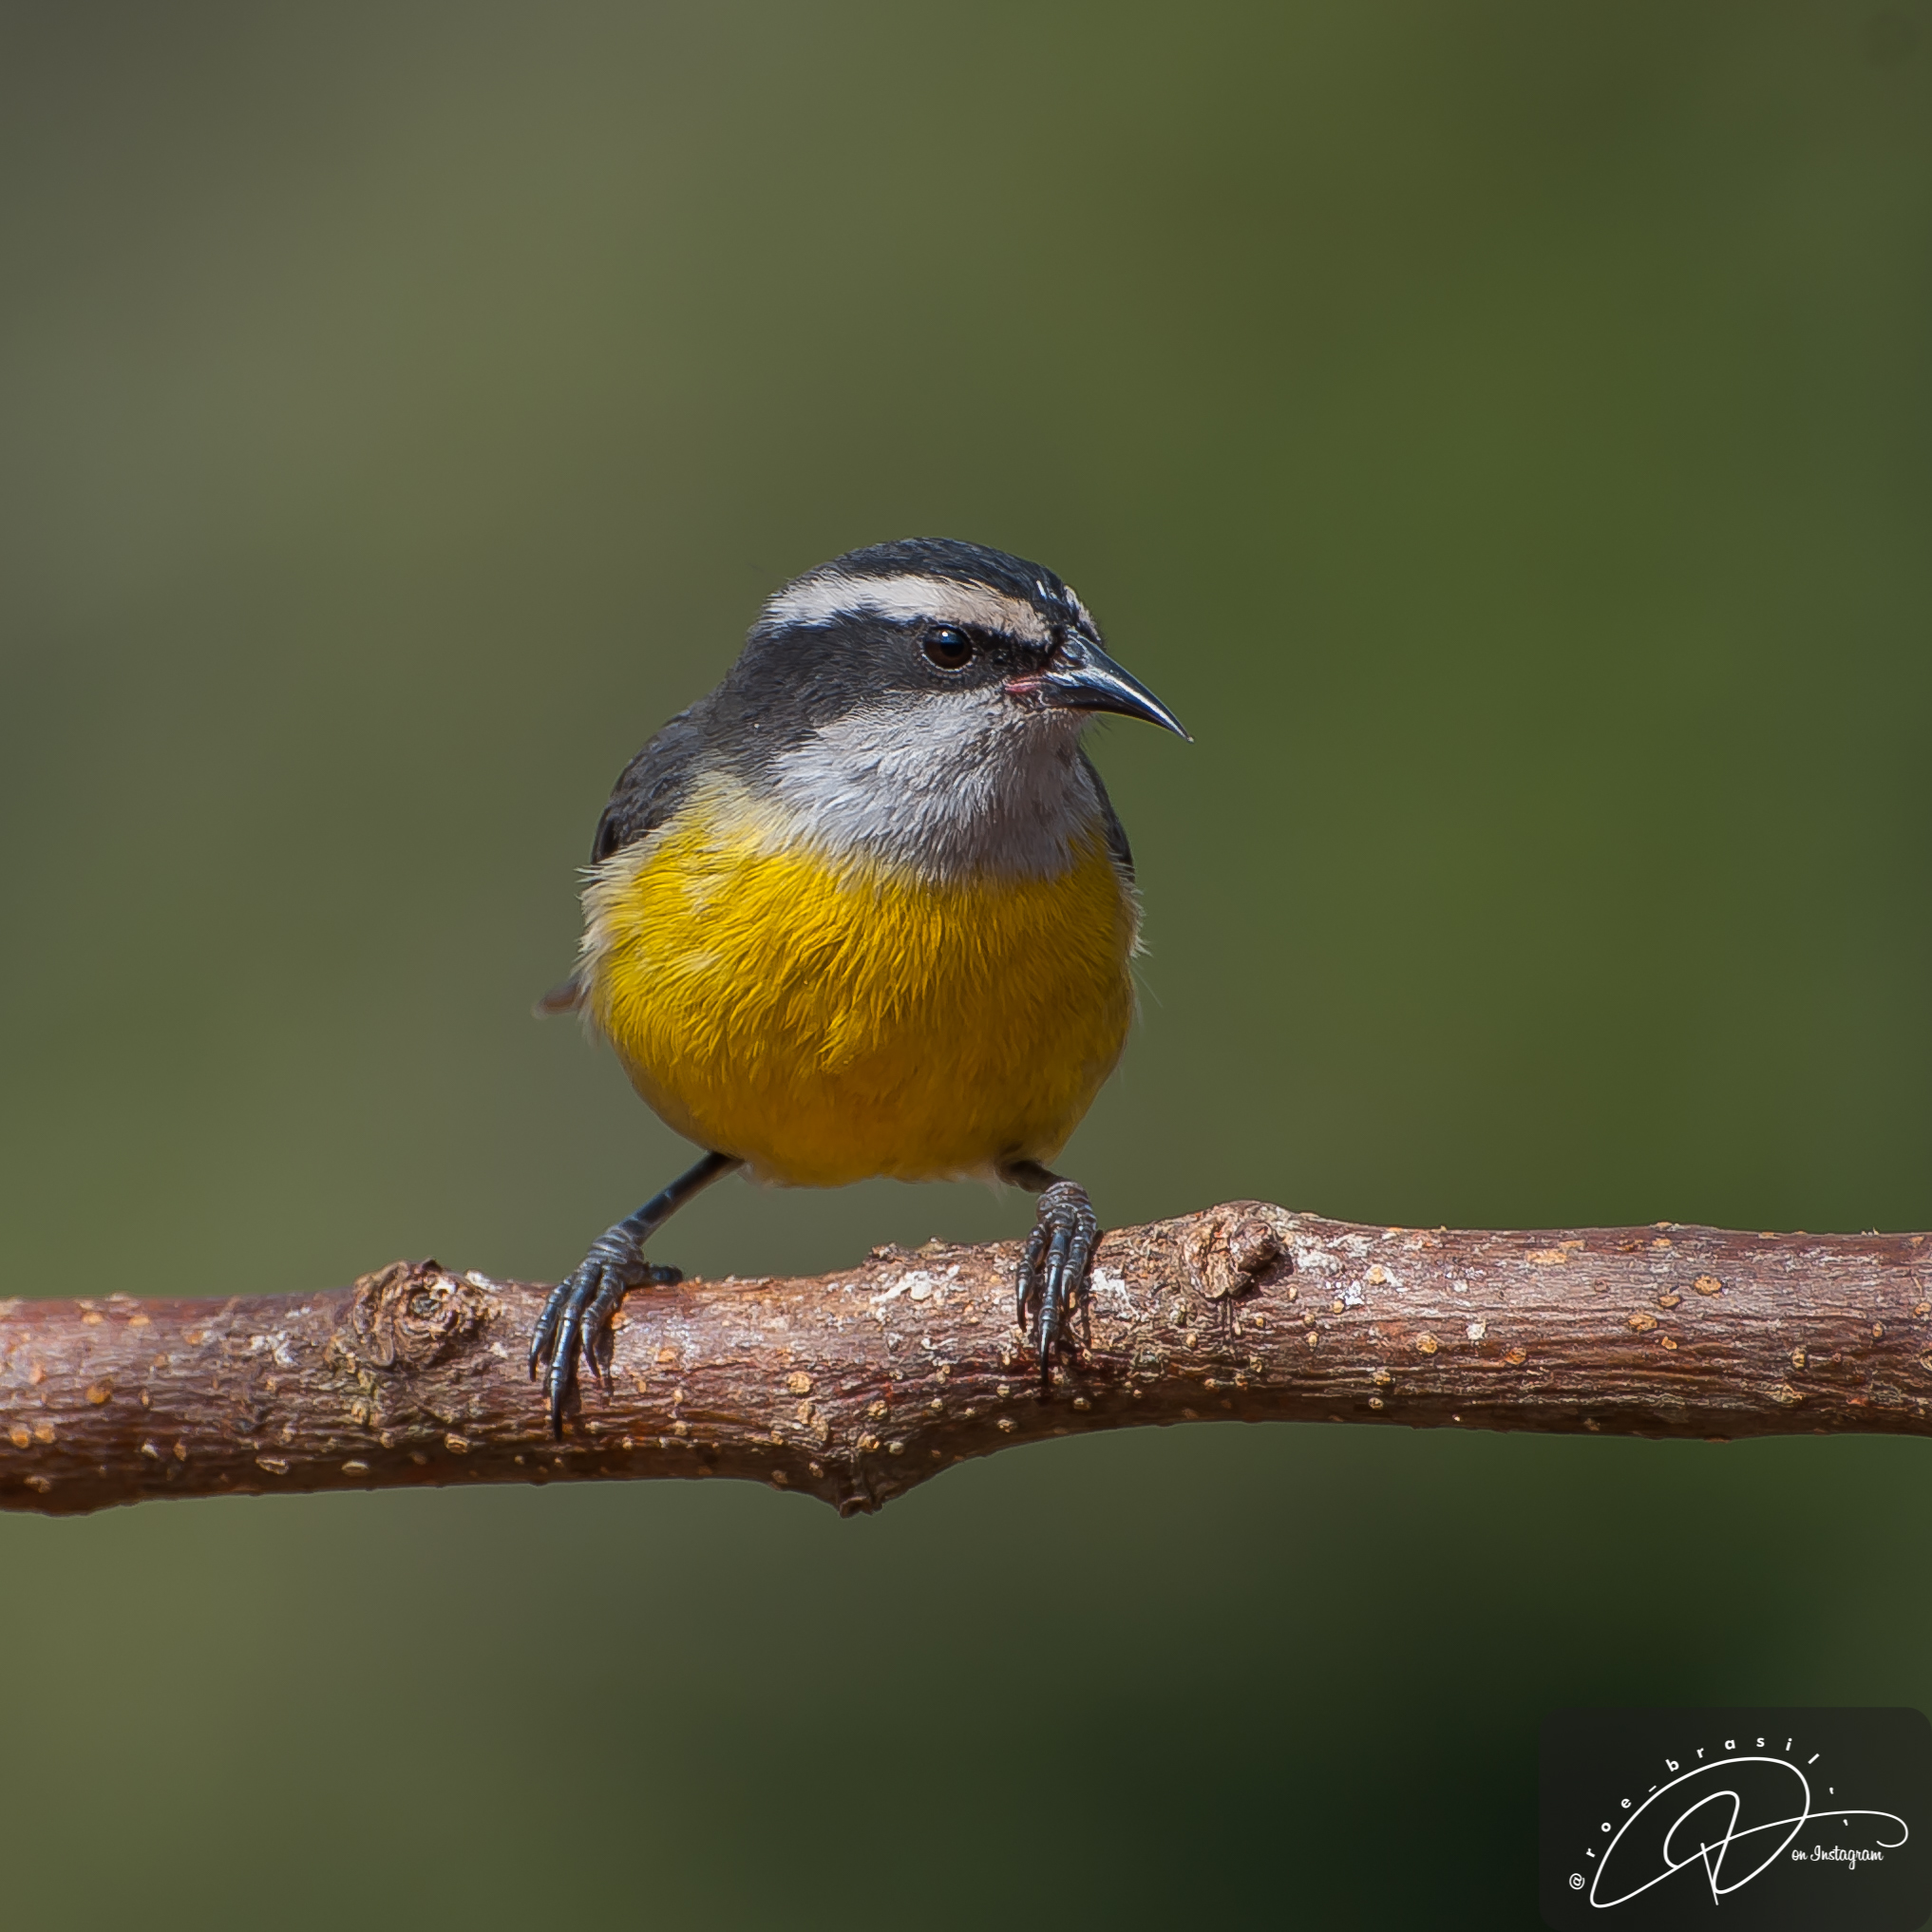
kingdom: Animalia
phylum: Chordata
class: Aves
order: Passeriformes
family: Thraupidae
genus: Coereba
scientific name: Coereba flaveola
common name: Bananaquit
